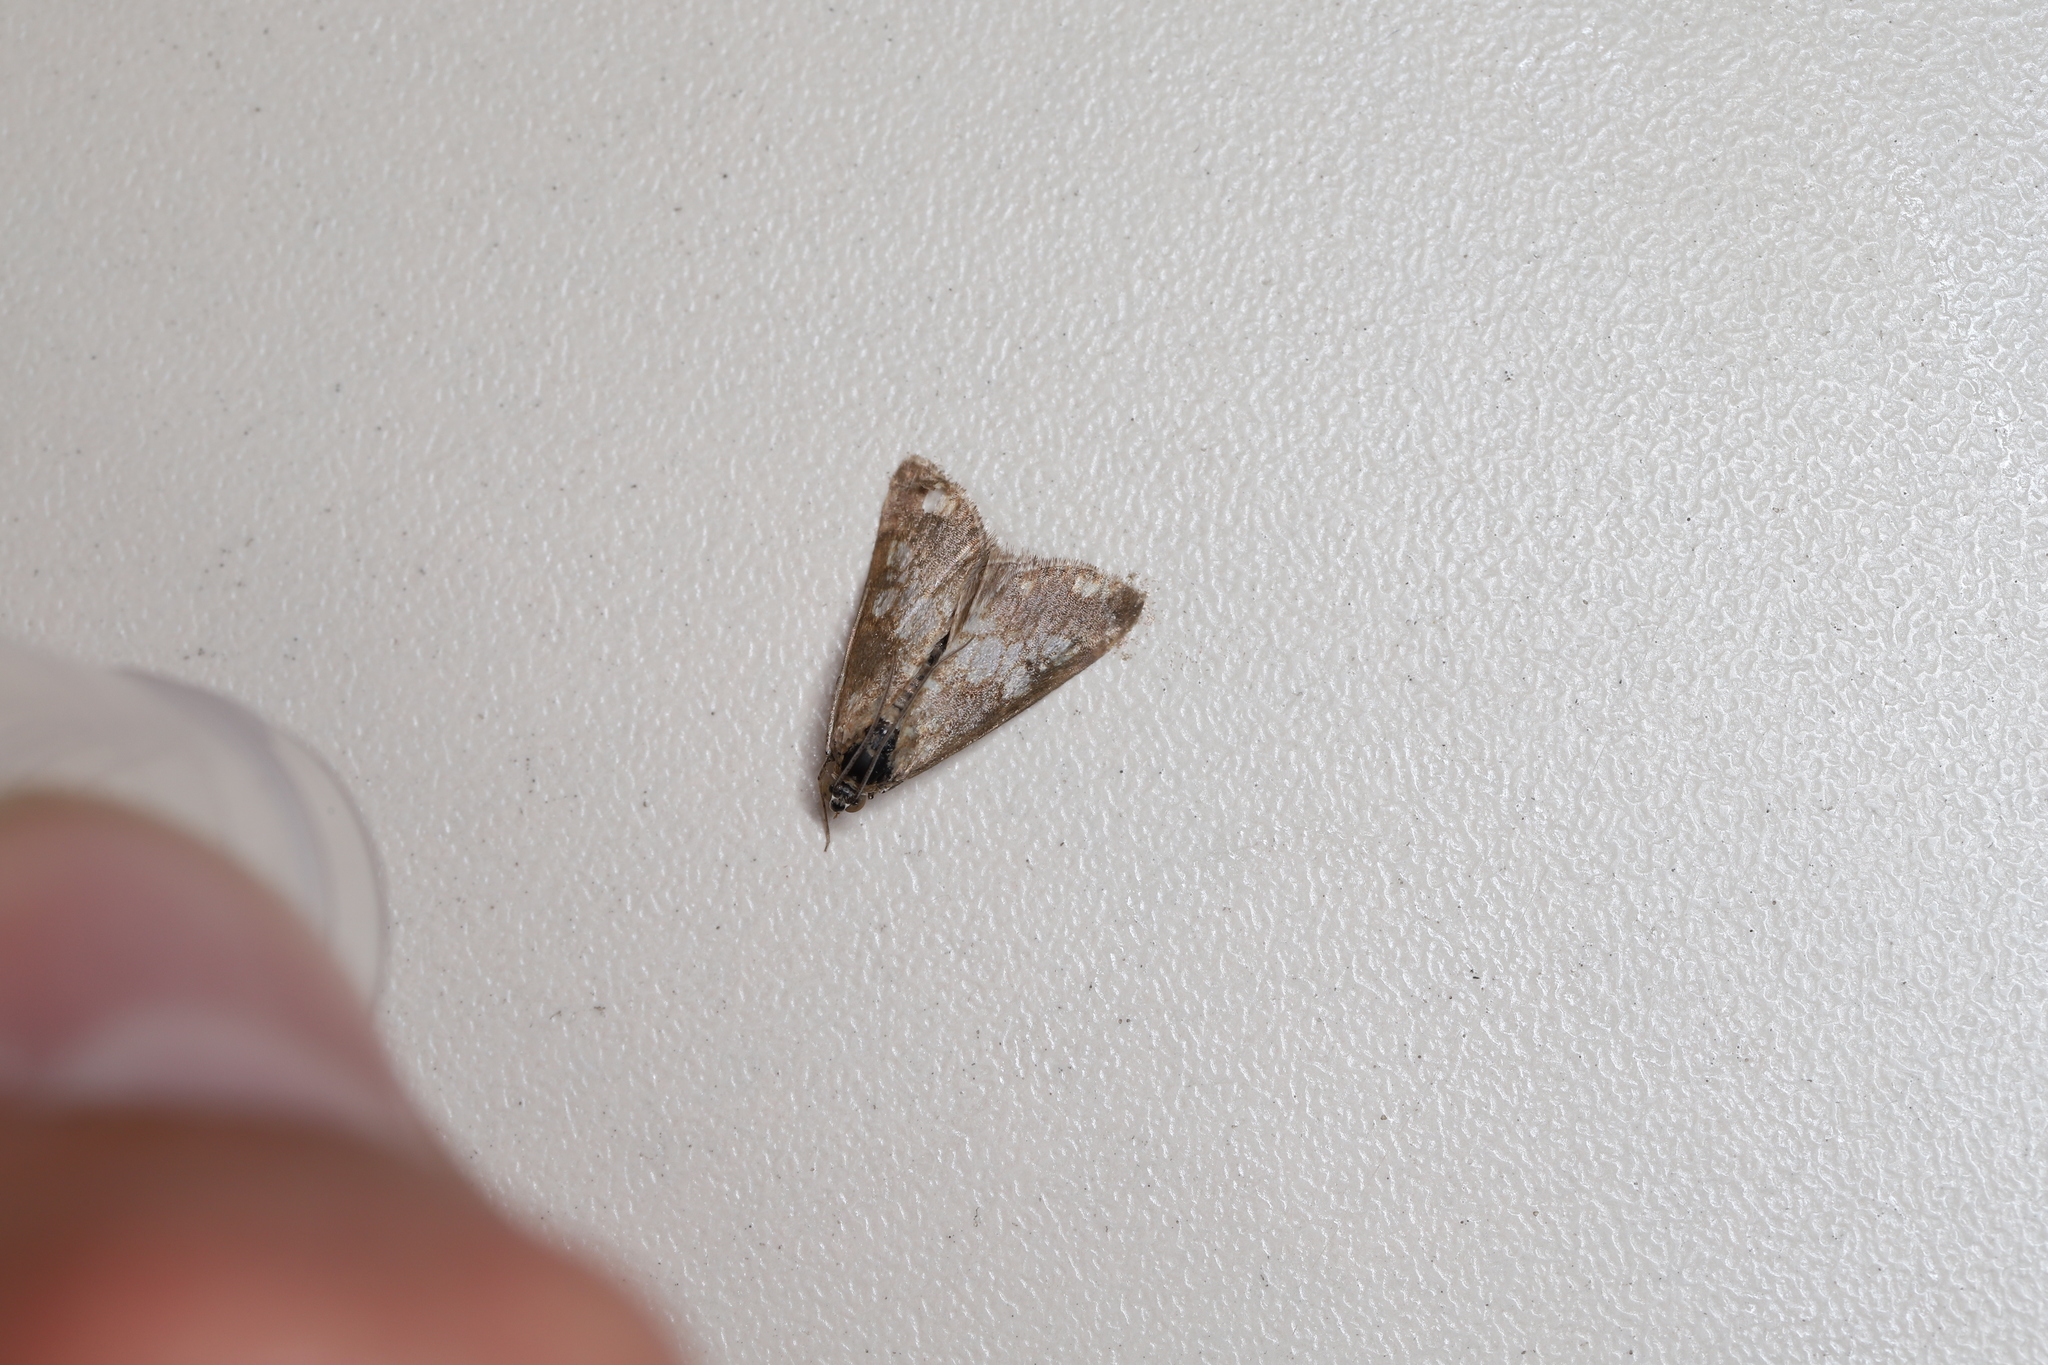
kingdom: Animalia
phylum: Arthropoda
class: Insecta
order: Lepidoptera
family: Crambidae
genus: Evergestis
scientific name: Evergestis politalis
